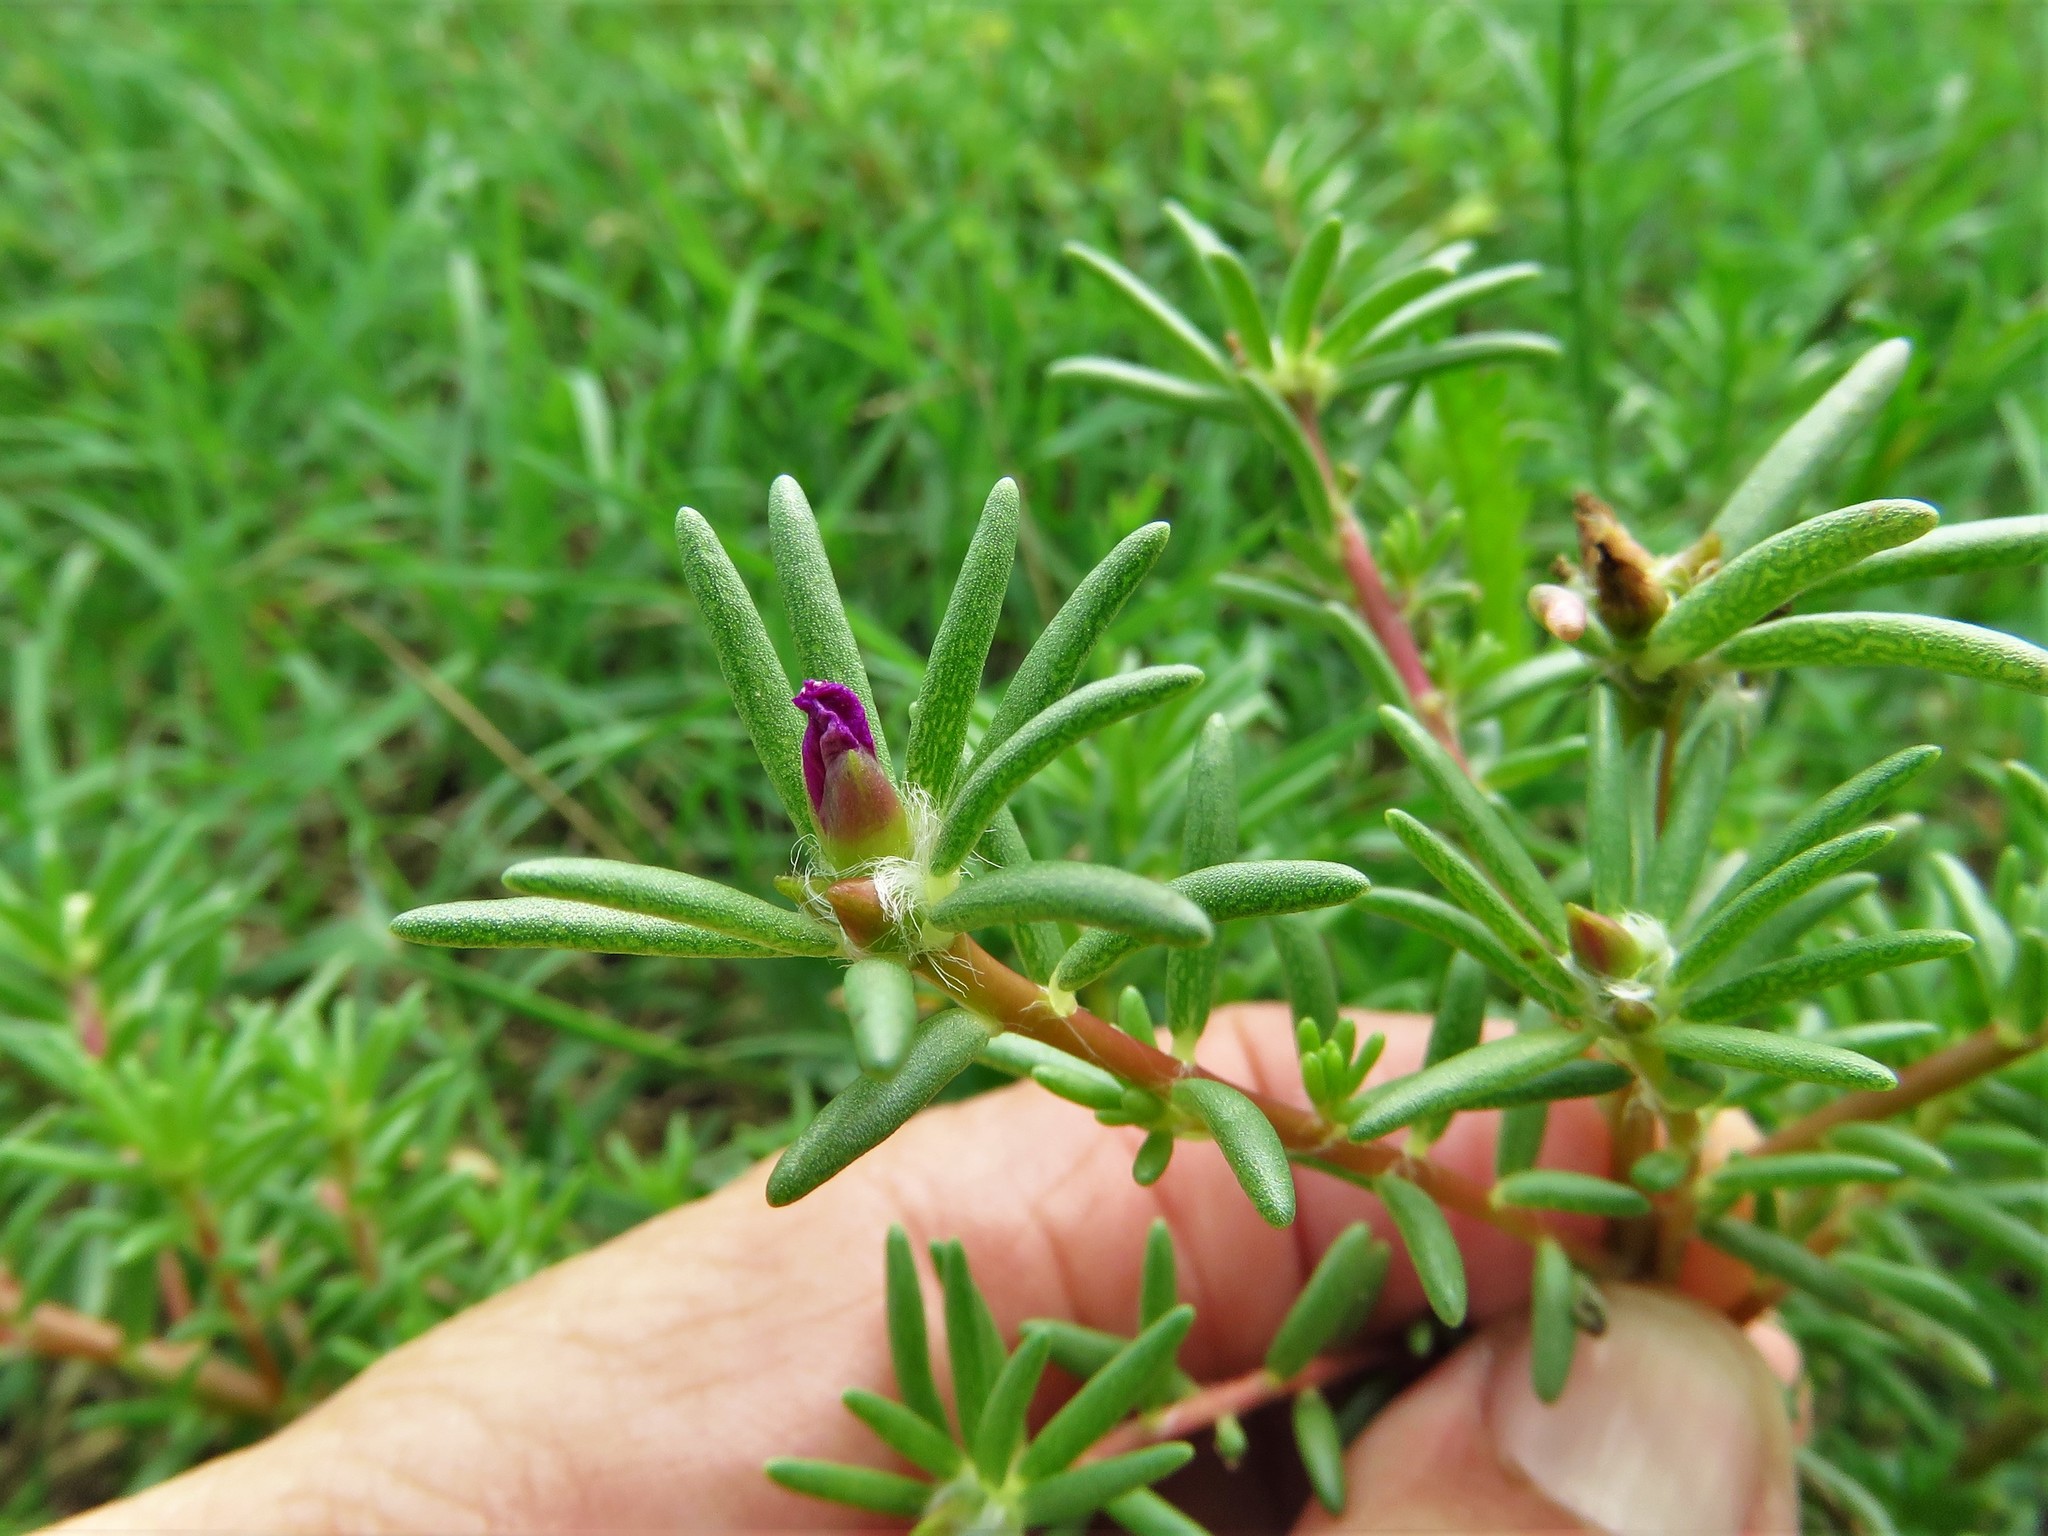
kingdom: Plantae
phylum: Tracheophyta
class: Magnoliopsida
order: Caryophyllales
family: Portulacaceae
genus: Portulaca
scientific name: Portulaca pilosa
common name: Kiss me quick
